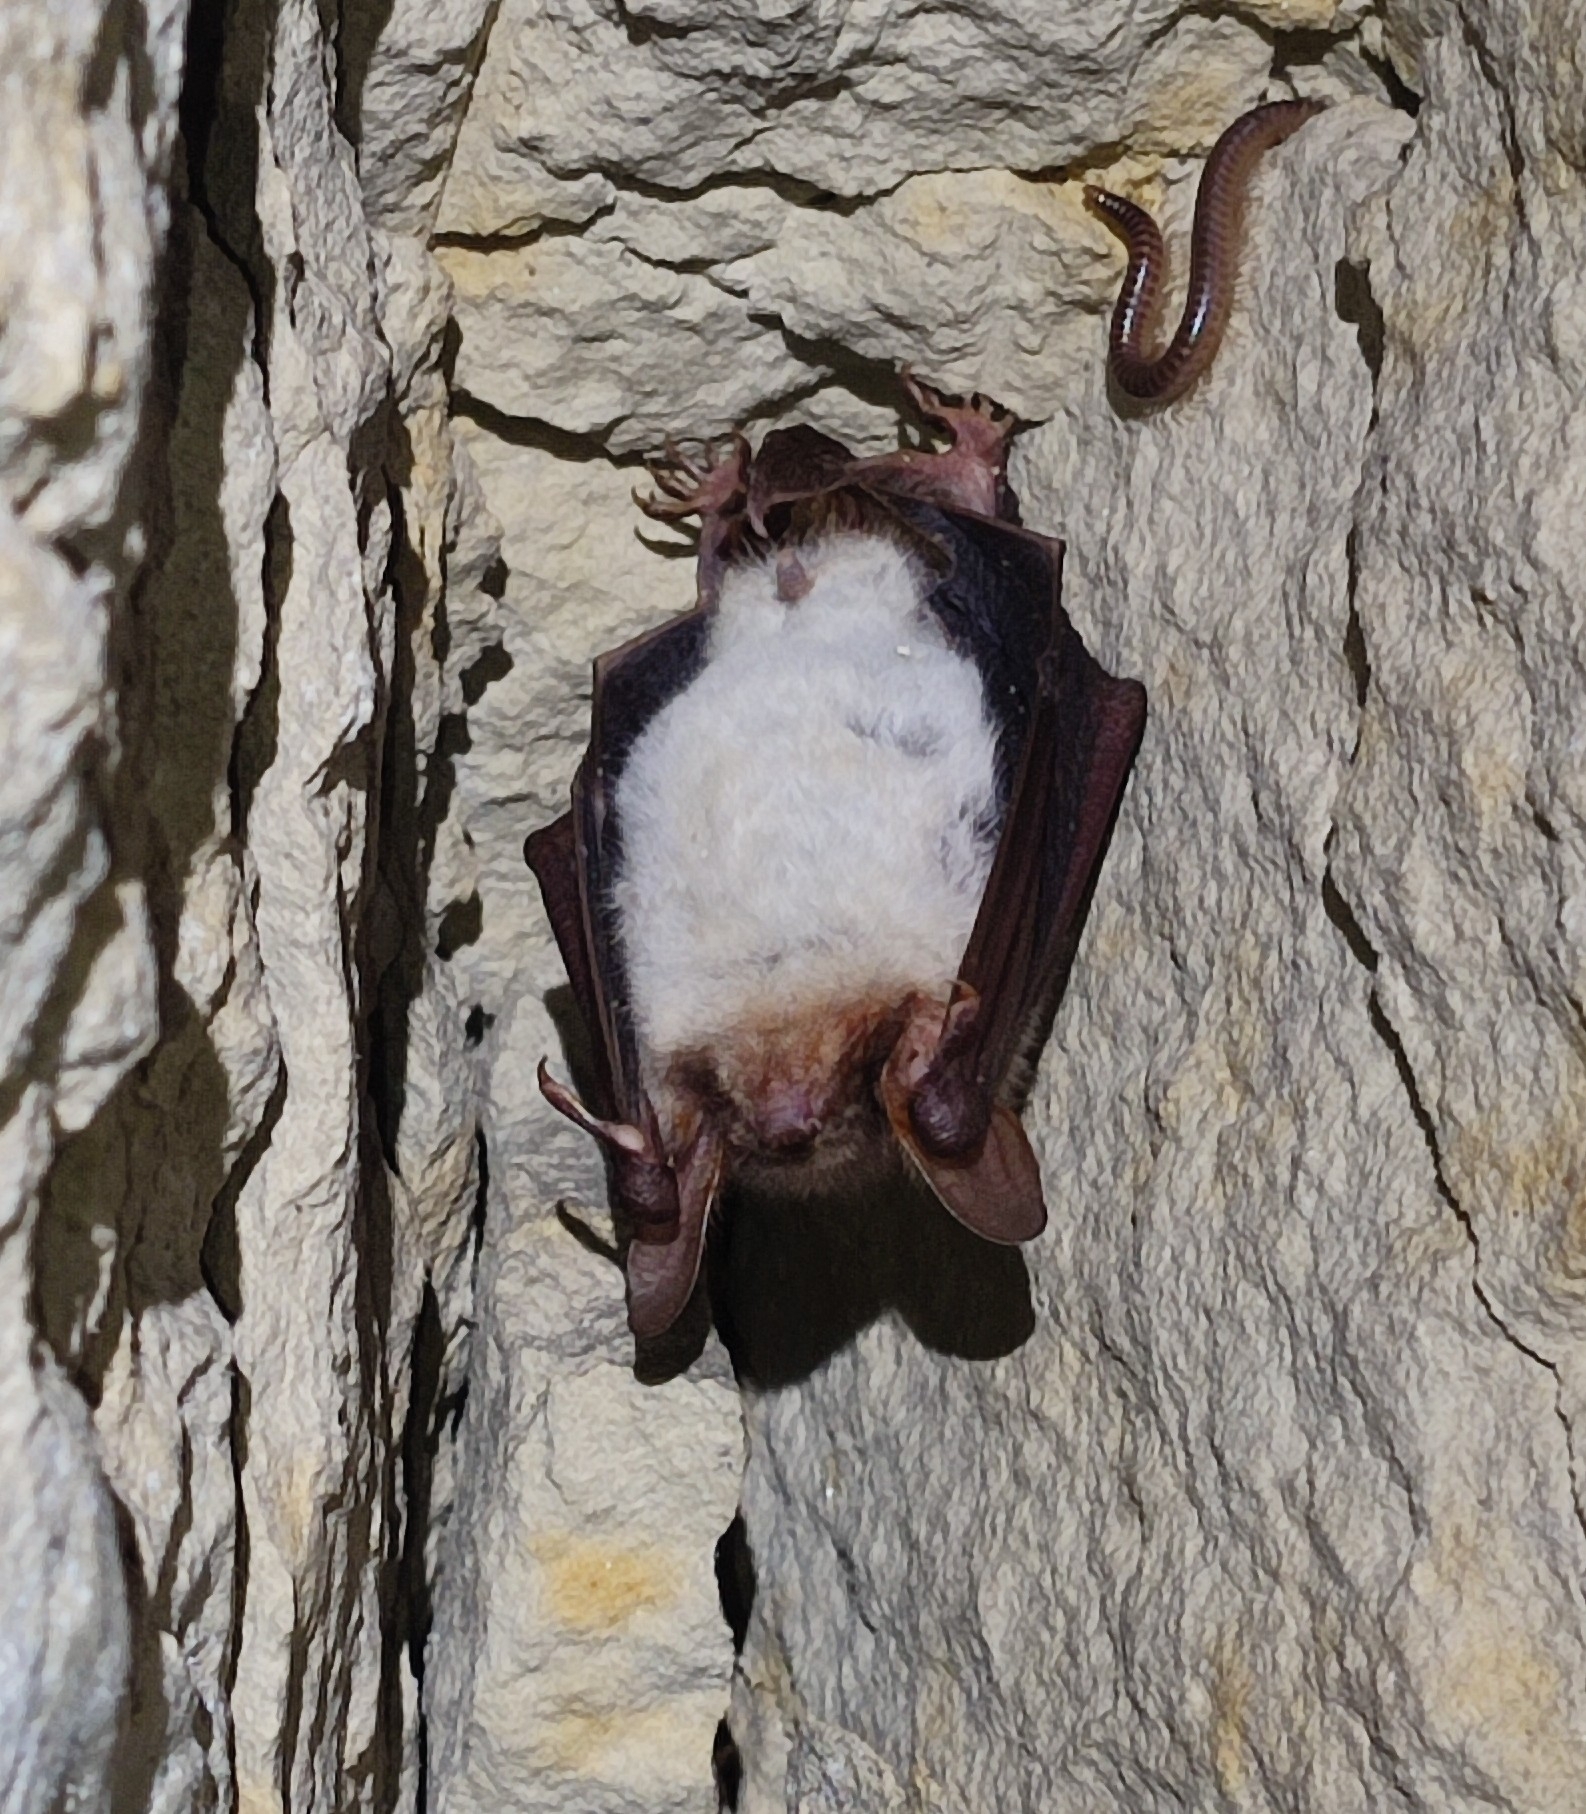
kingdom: Animalia
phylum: Chordata
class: Mammalia
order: Chiroptera
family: Vespertilionidae
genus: Myotis
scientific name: Myotis myotis
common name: Greater mouse-eared bat
